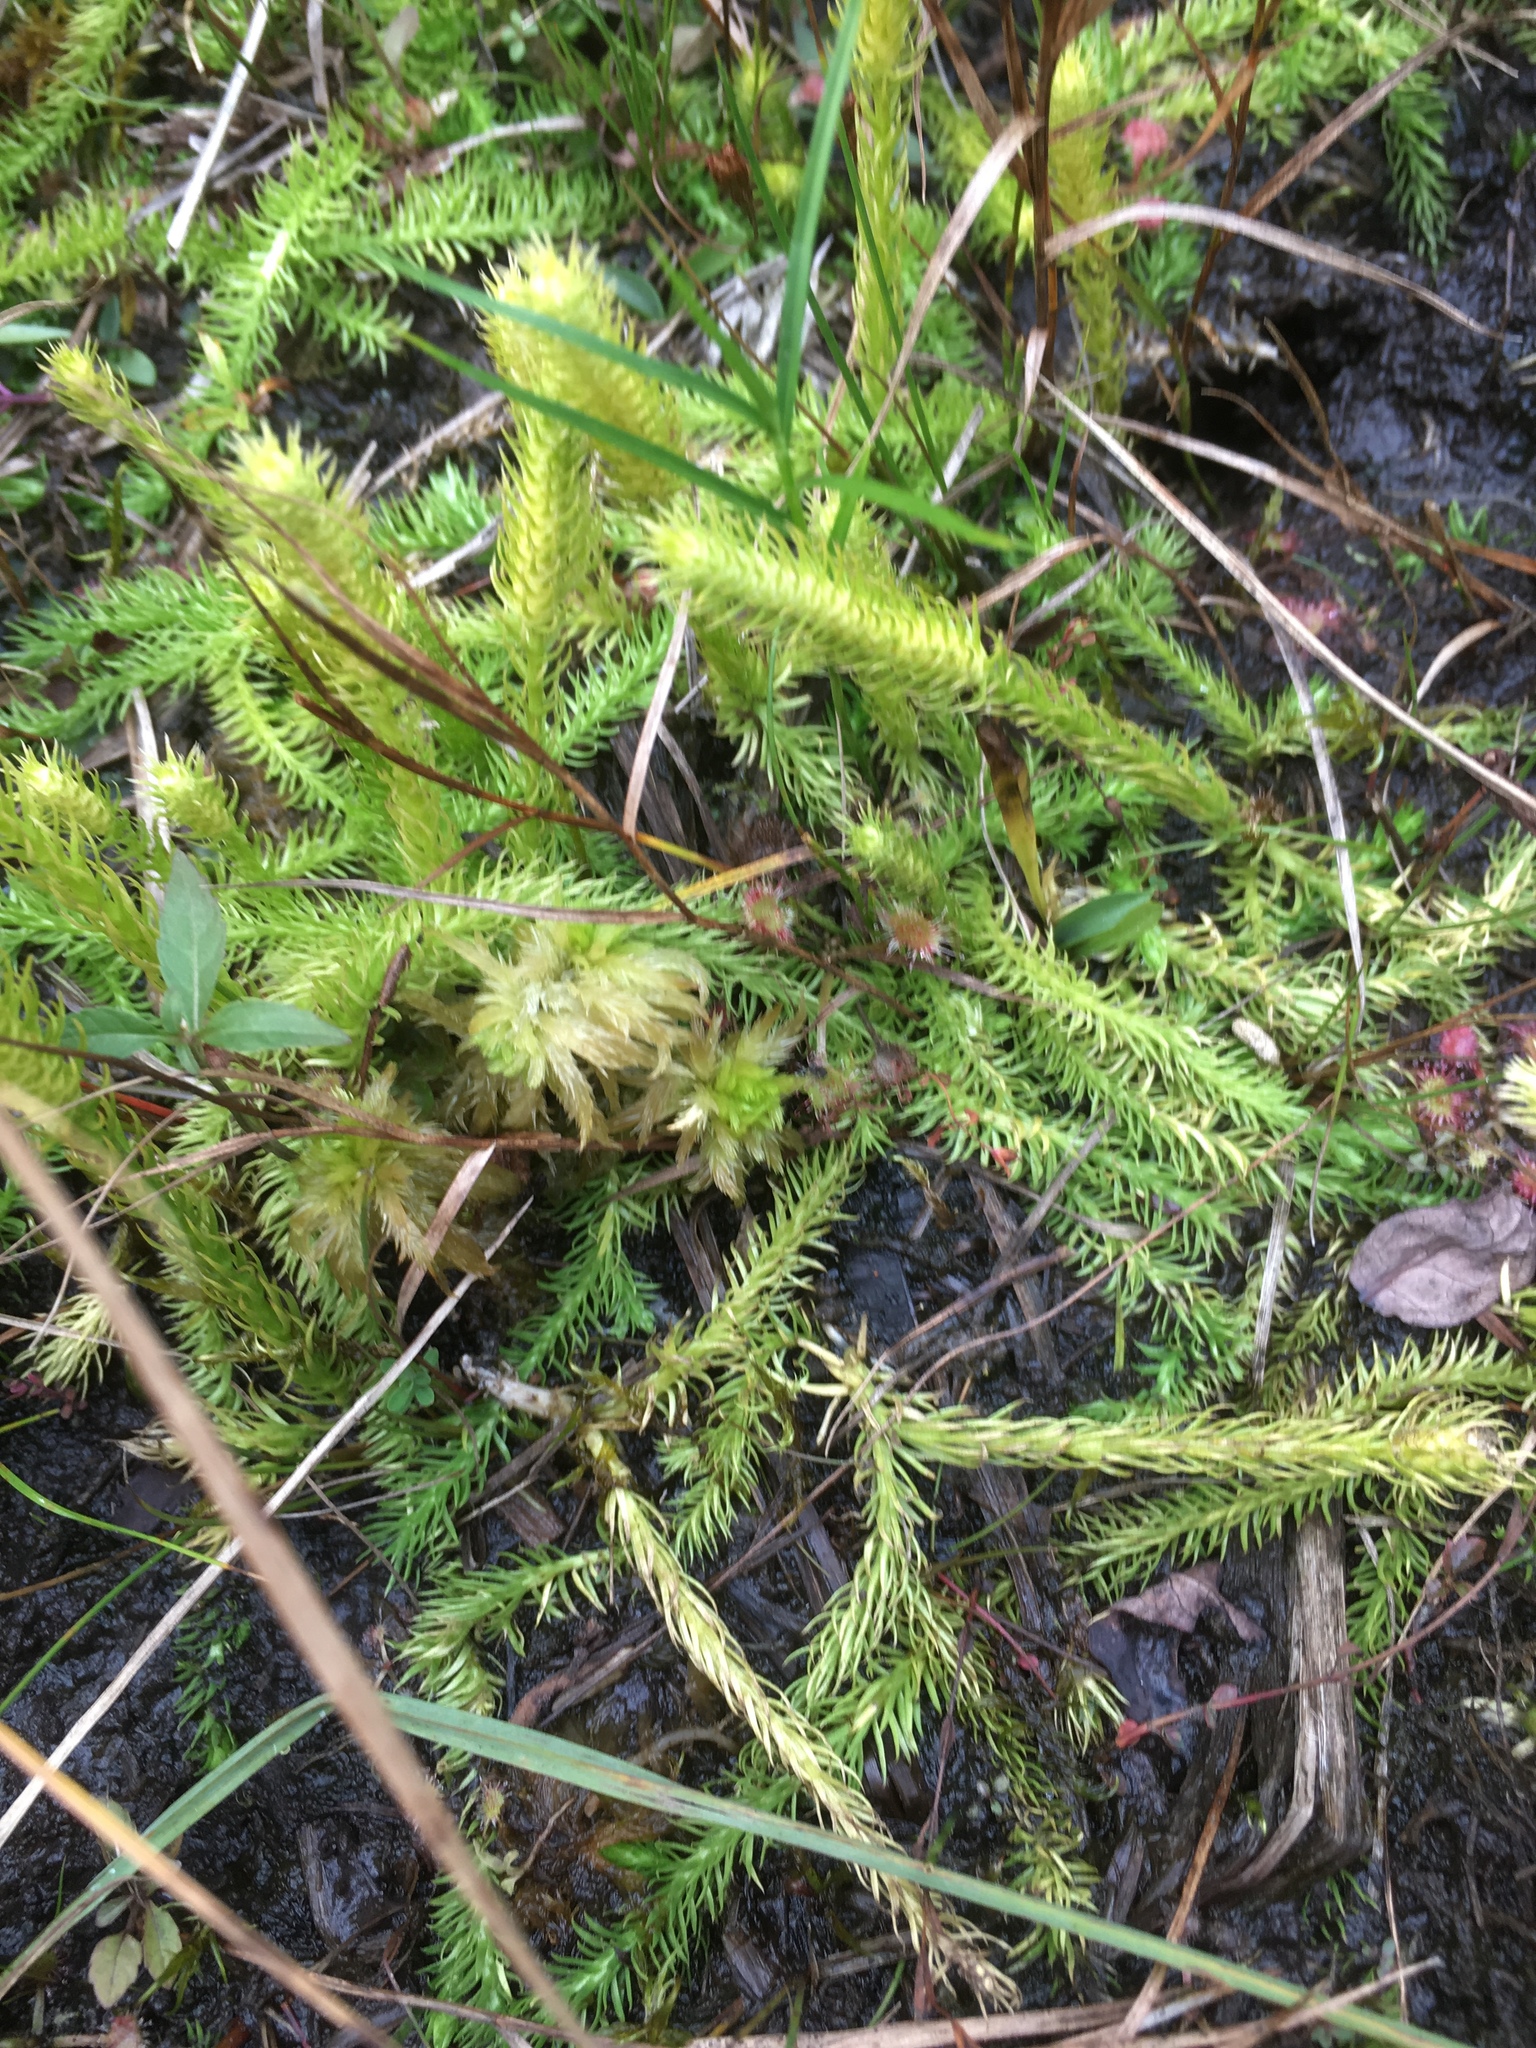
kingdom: Plantae
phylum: Tracheophyta
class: Lycopodiopsida
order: Lycopodiales
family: Lycopodiaceae
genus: Lycopodium
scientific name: Lycopodium clavatum
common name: Stag's-horn clubmoss
